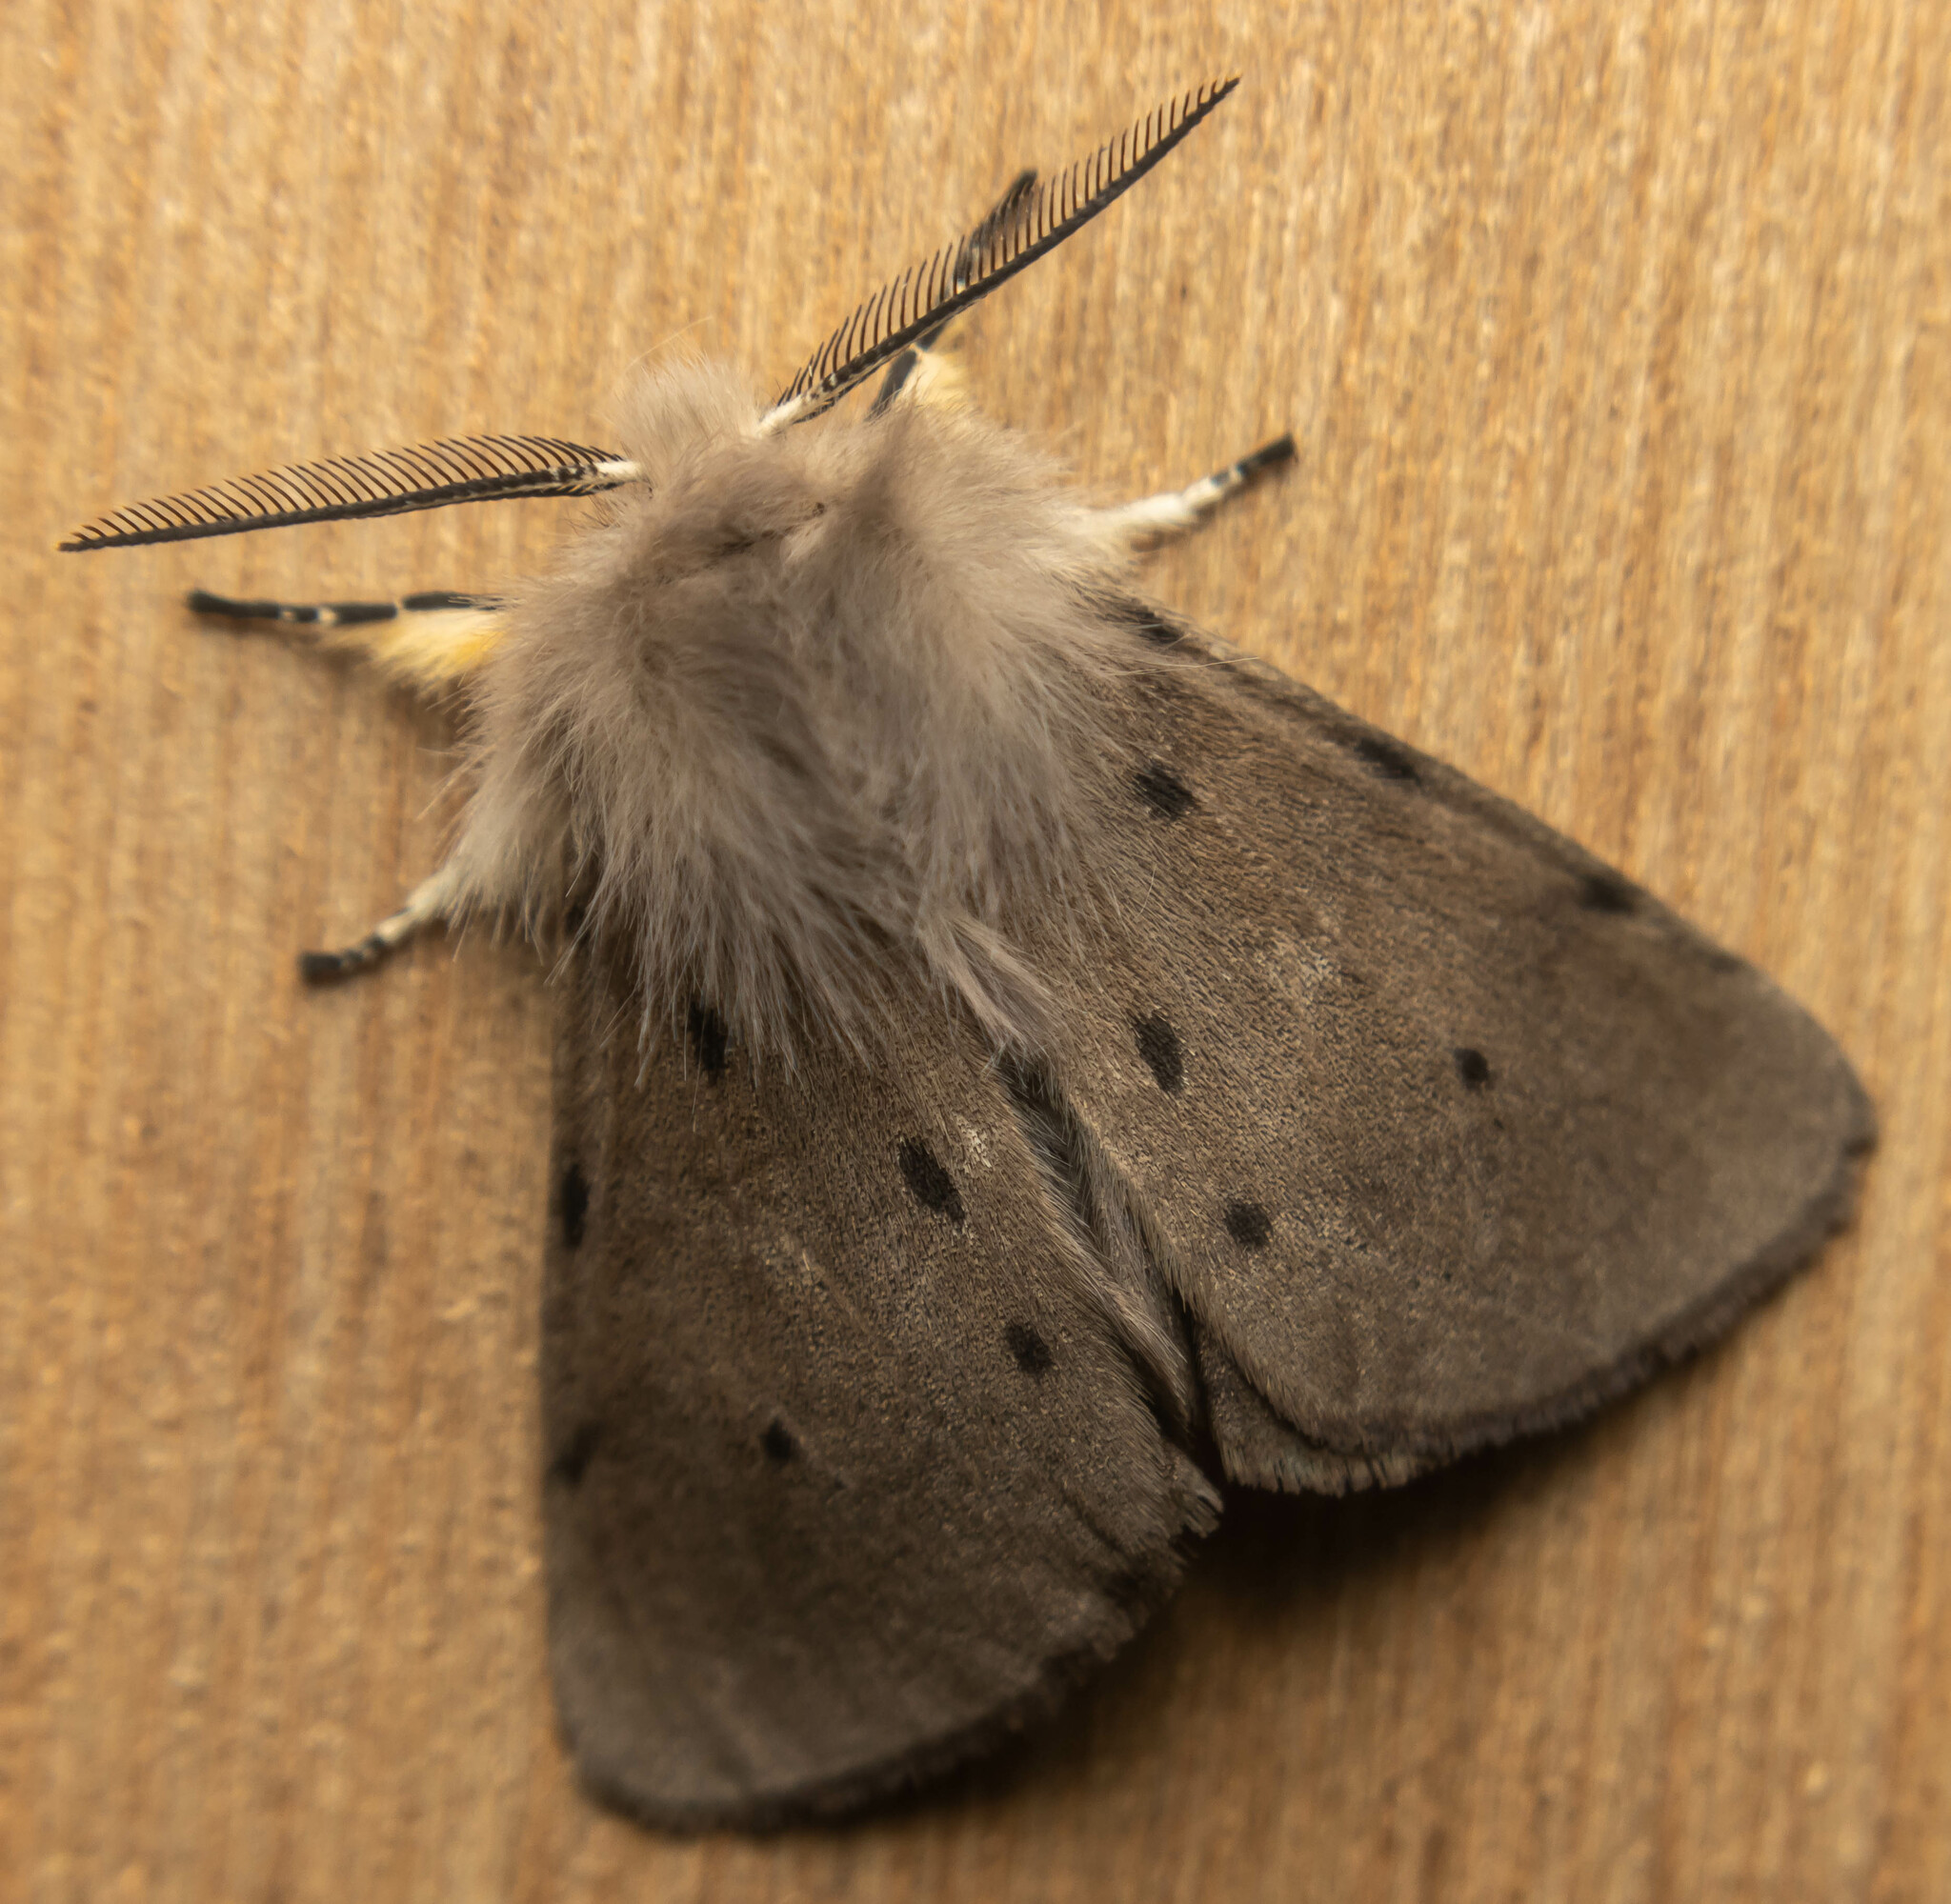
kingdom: Animalia
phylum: Arthropoda
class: Insecta
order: Lepidoptera
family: Erebidae
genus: Diaphora
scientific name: Diaphora mendica
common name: Muslin moth
